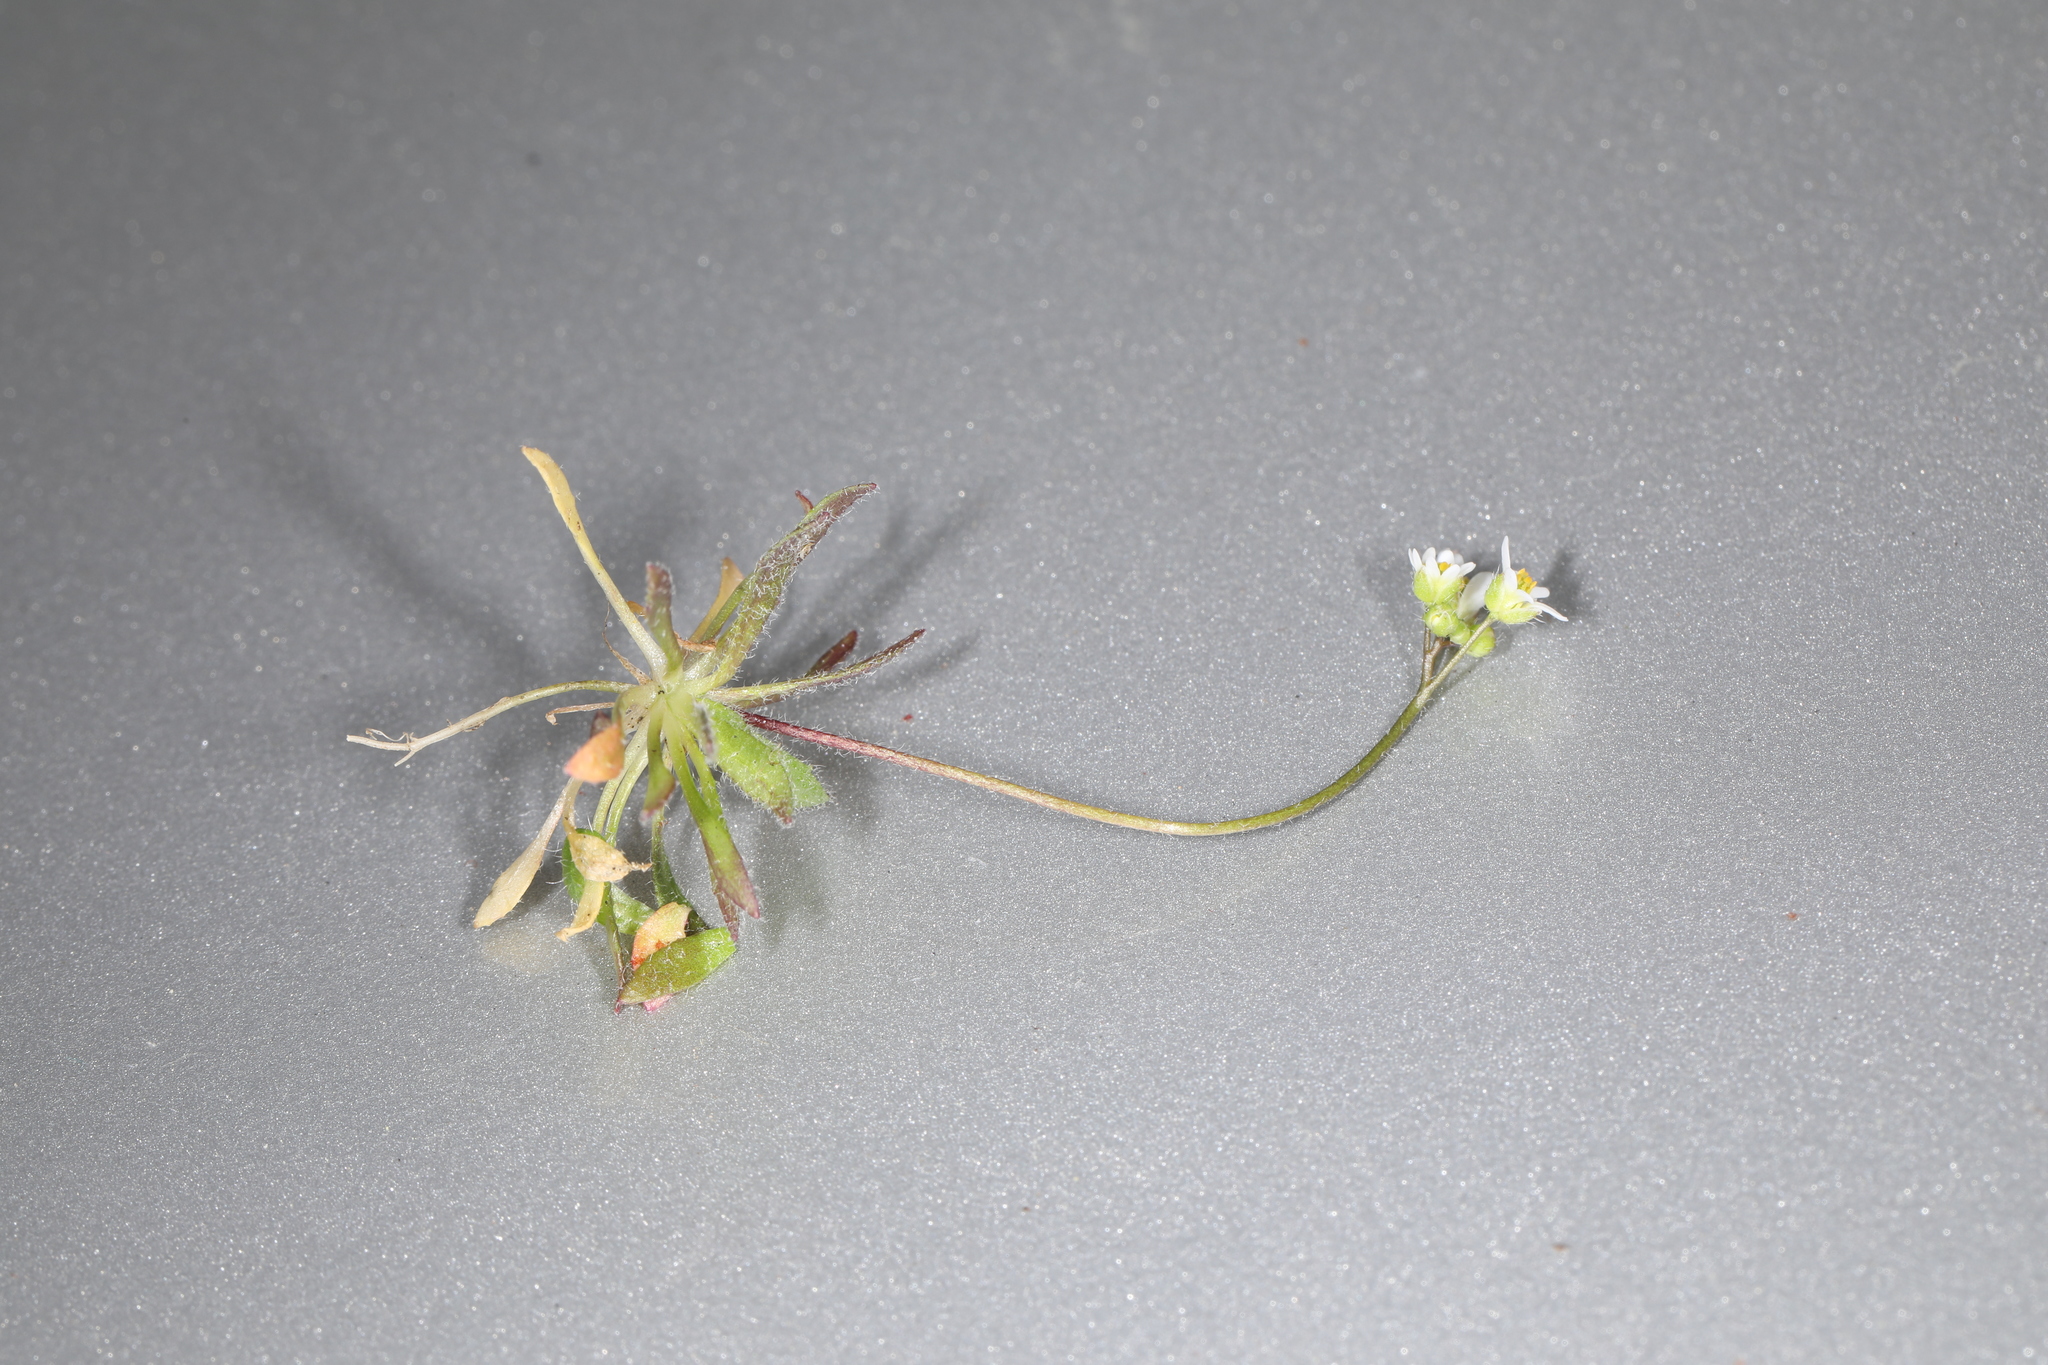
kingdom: Plantae
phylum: Tracheophyta
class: Magnoliopsida
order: Brassicales
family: Brassicaceae
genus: Draba
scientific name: Draba verna
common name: Spring draba
